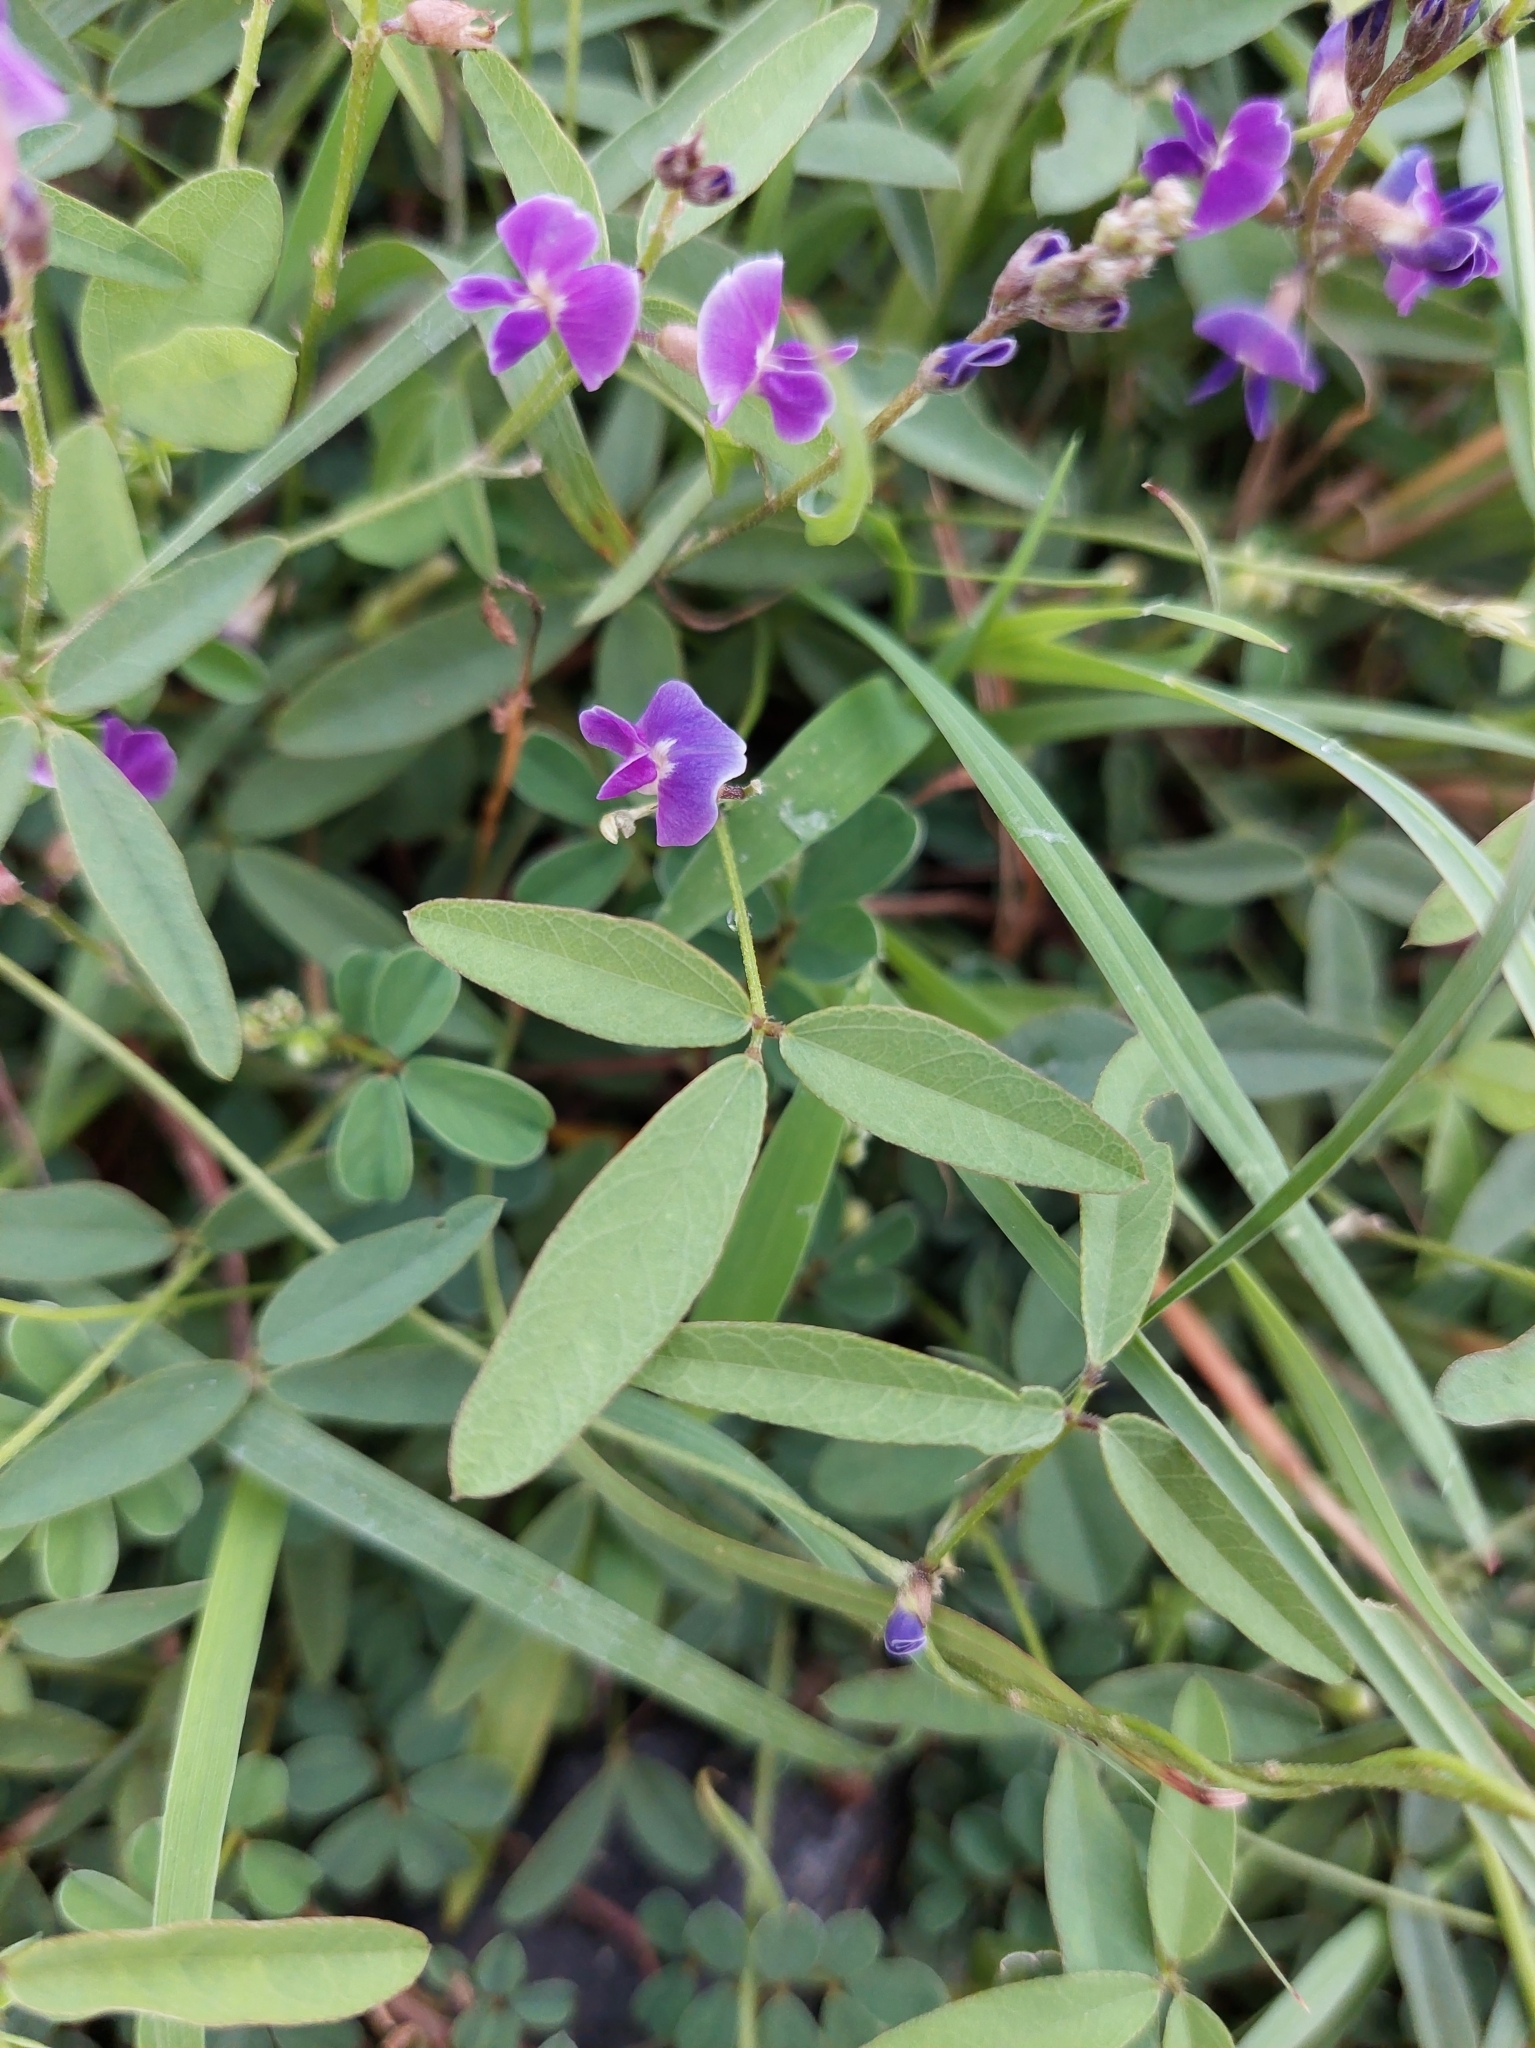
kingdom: Plantae
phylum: Tracheophyta
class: Magnoliopsida
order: Fabales
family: Fabaceae
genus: Glycine
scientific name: Glycine tabacina
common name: Pea glycine
